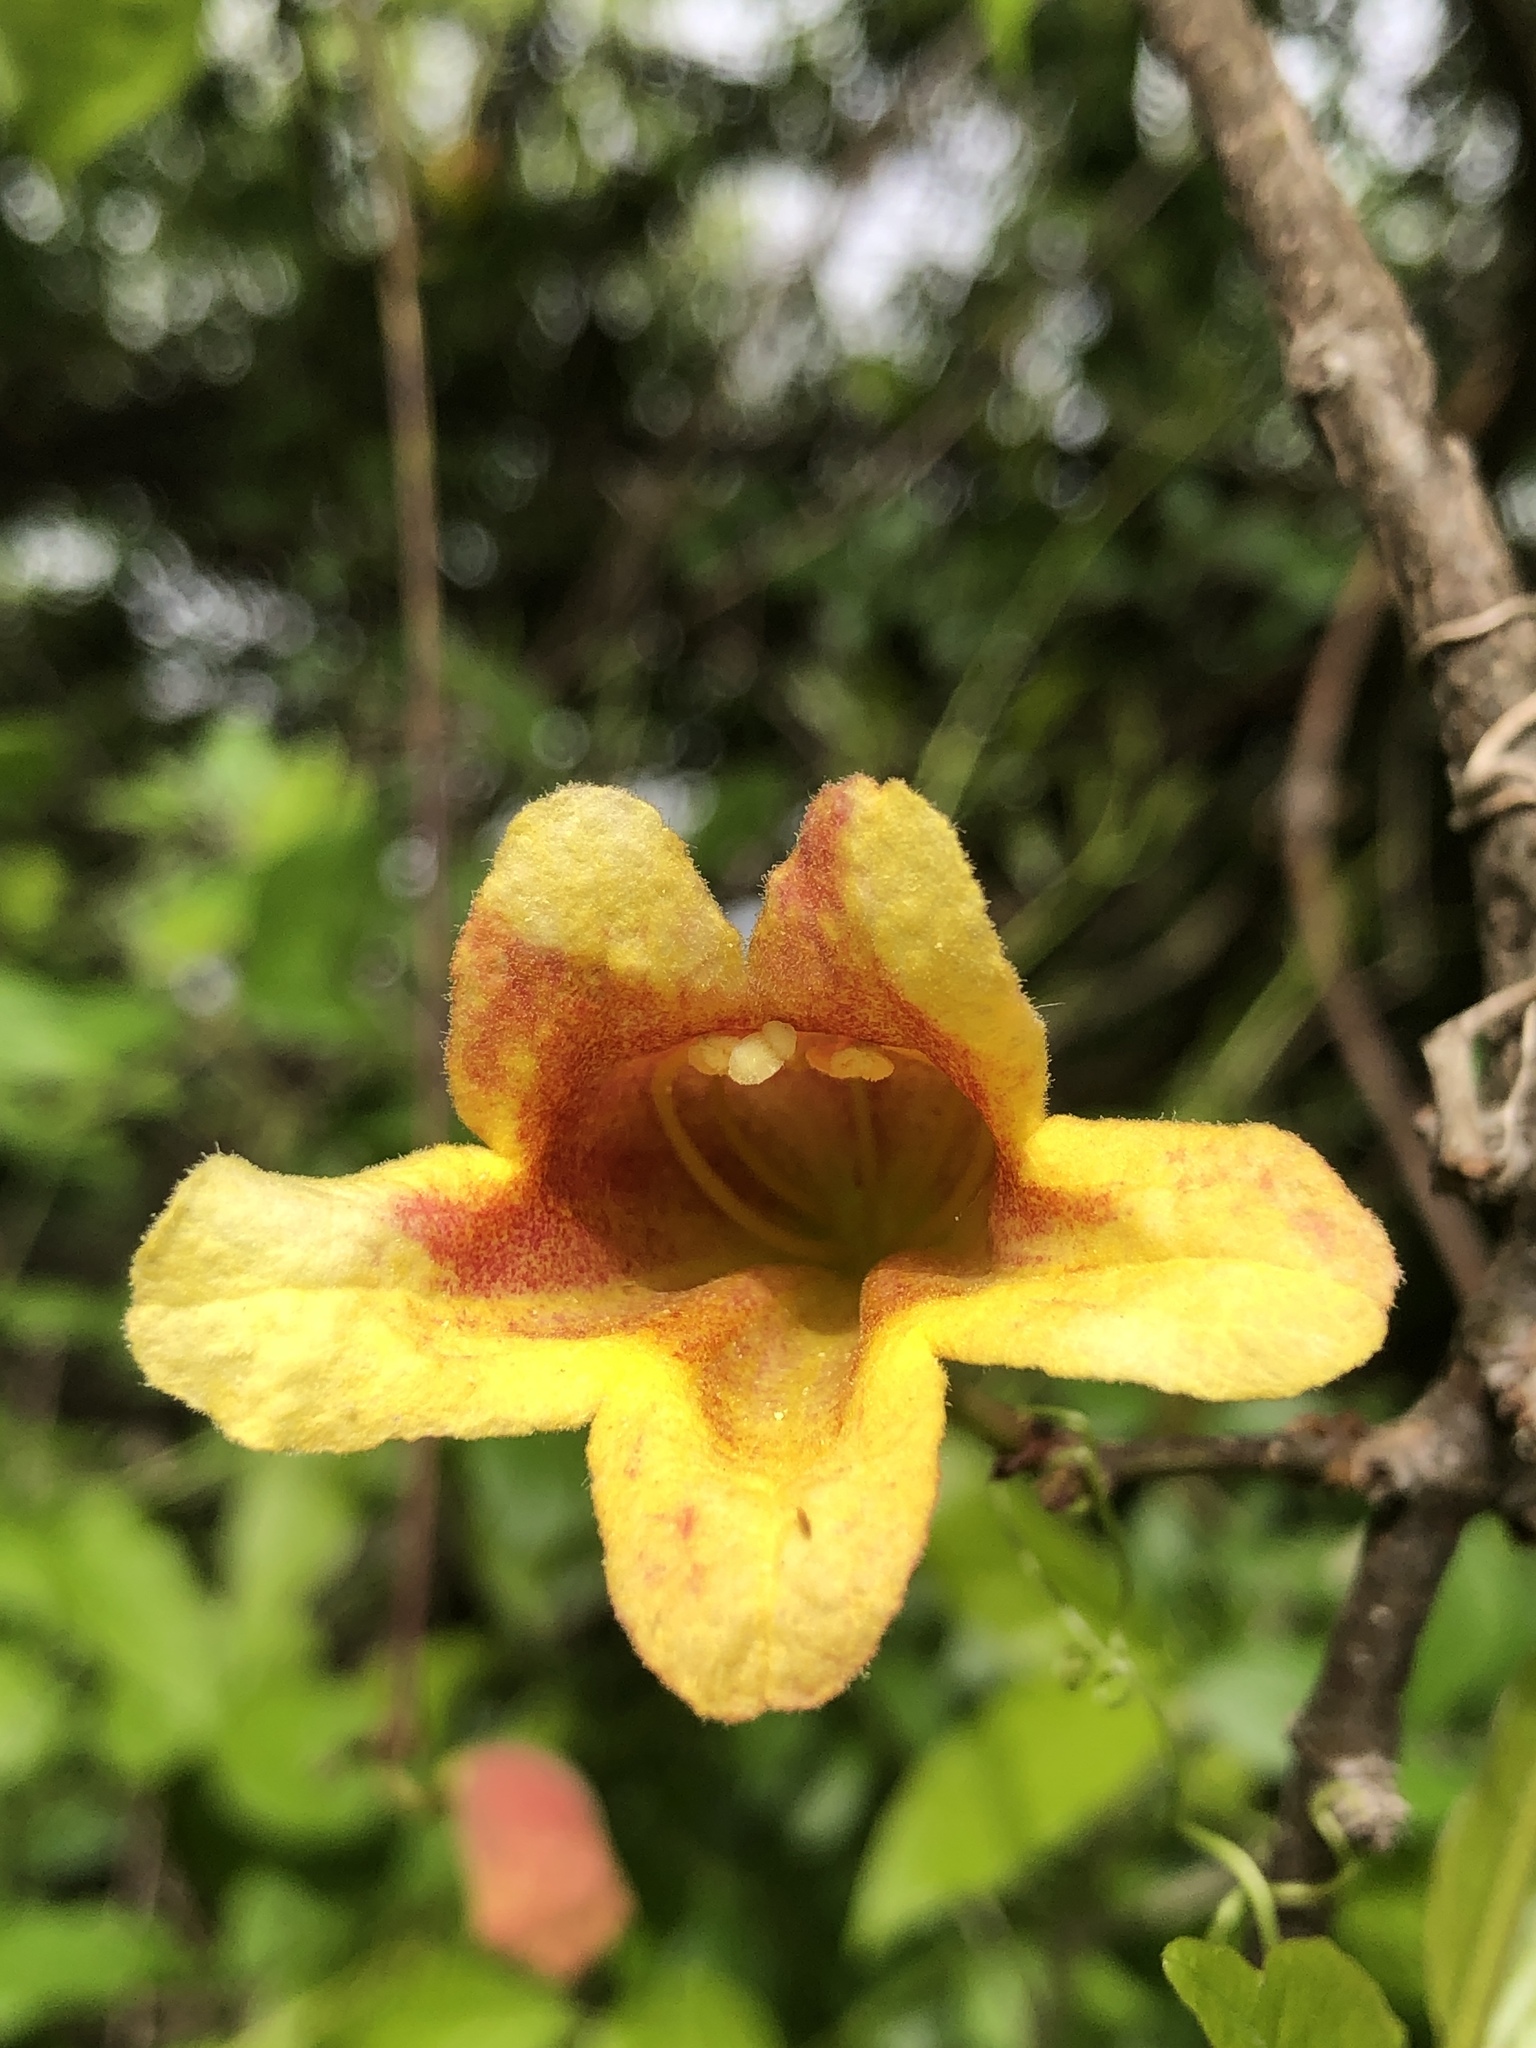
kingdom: Plantae
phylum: Tracheophyta
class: Magnoliopsida
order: Lamiales
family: Bignoniaceae
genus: Bignonia
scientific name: Bignonia capreolata
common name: Crossvine
